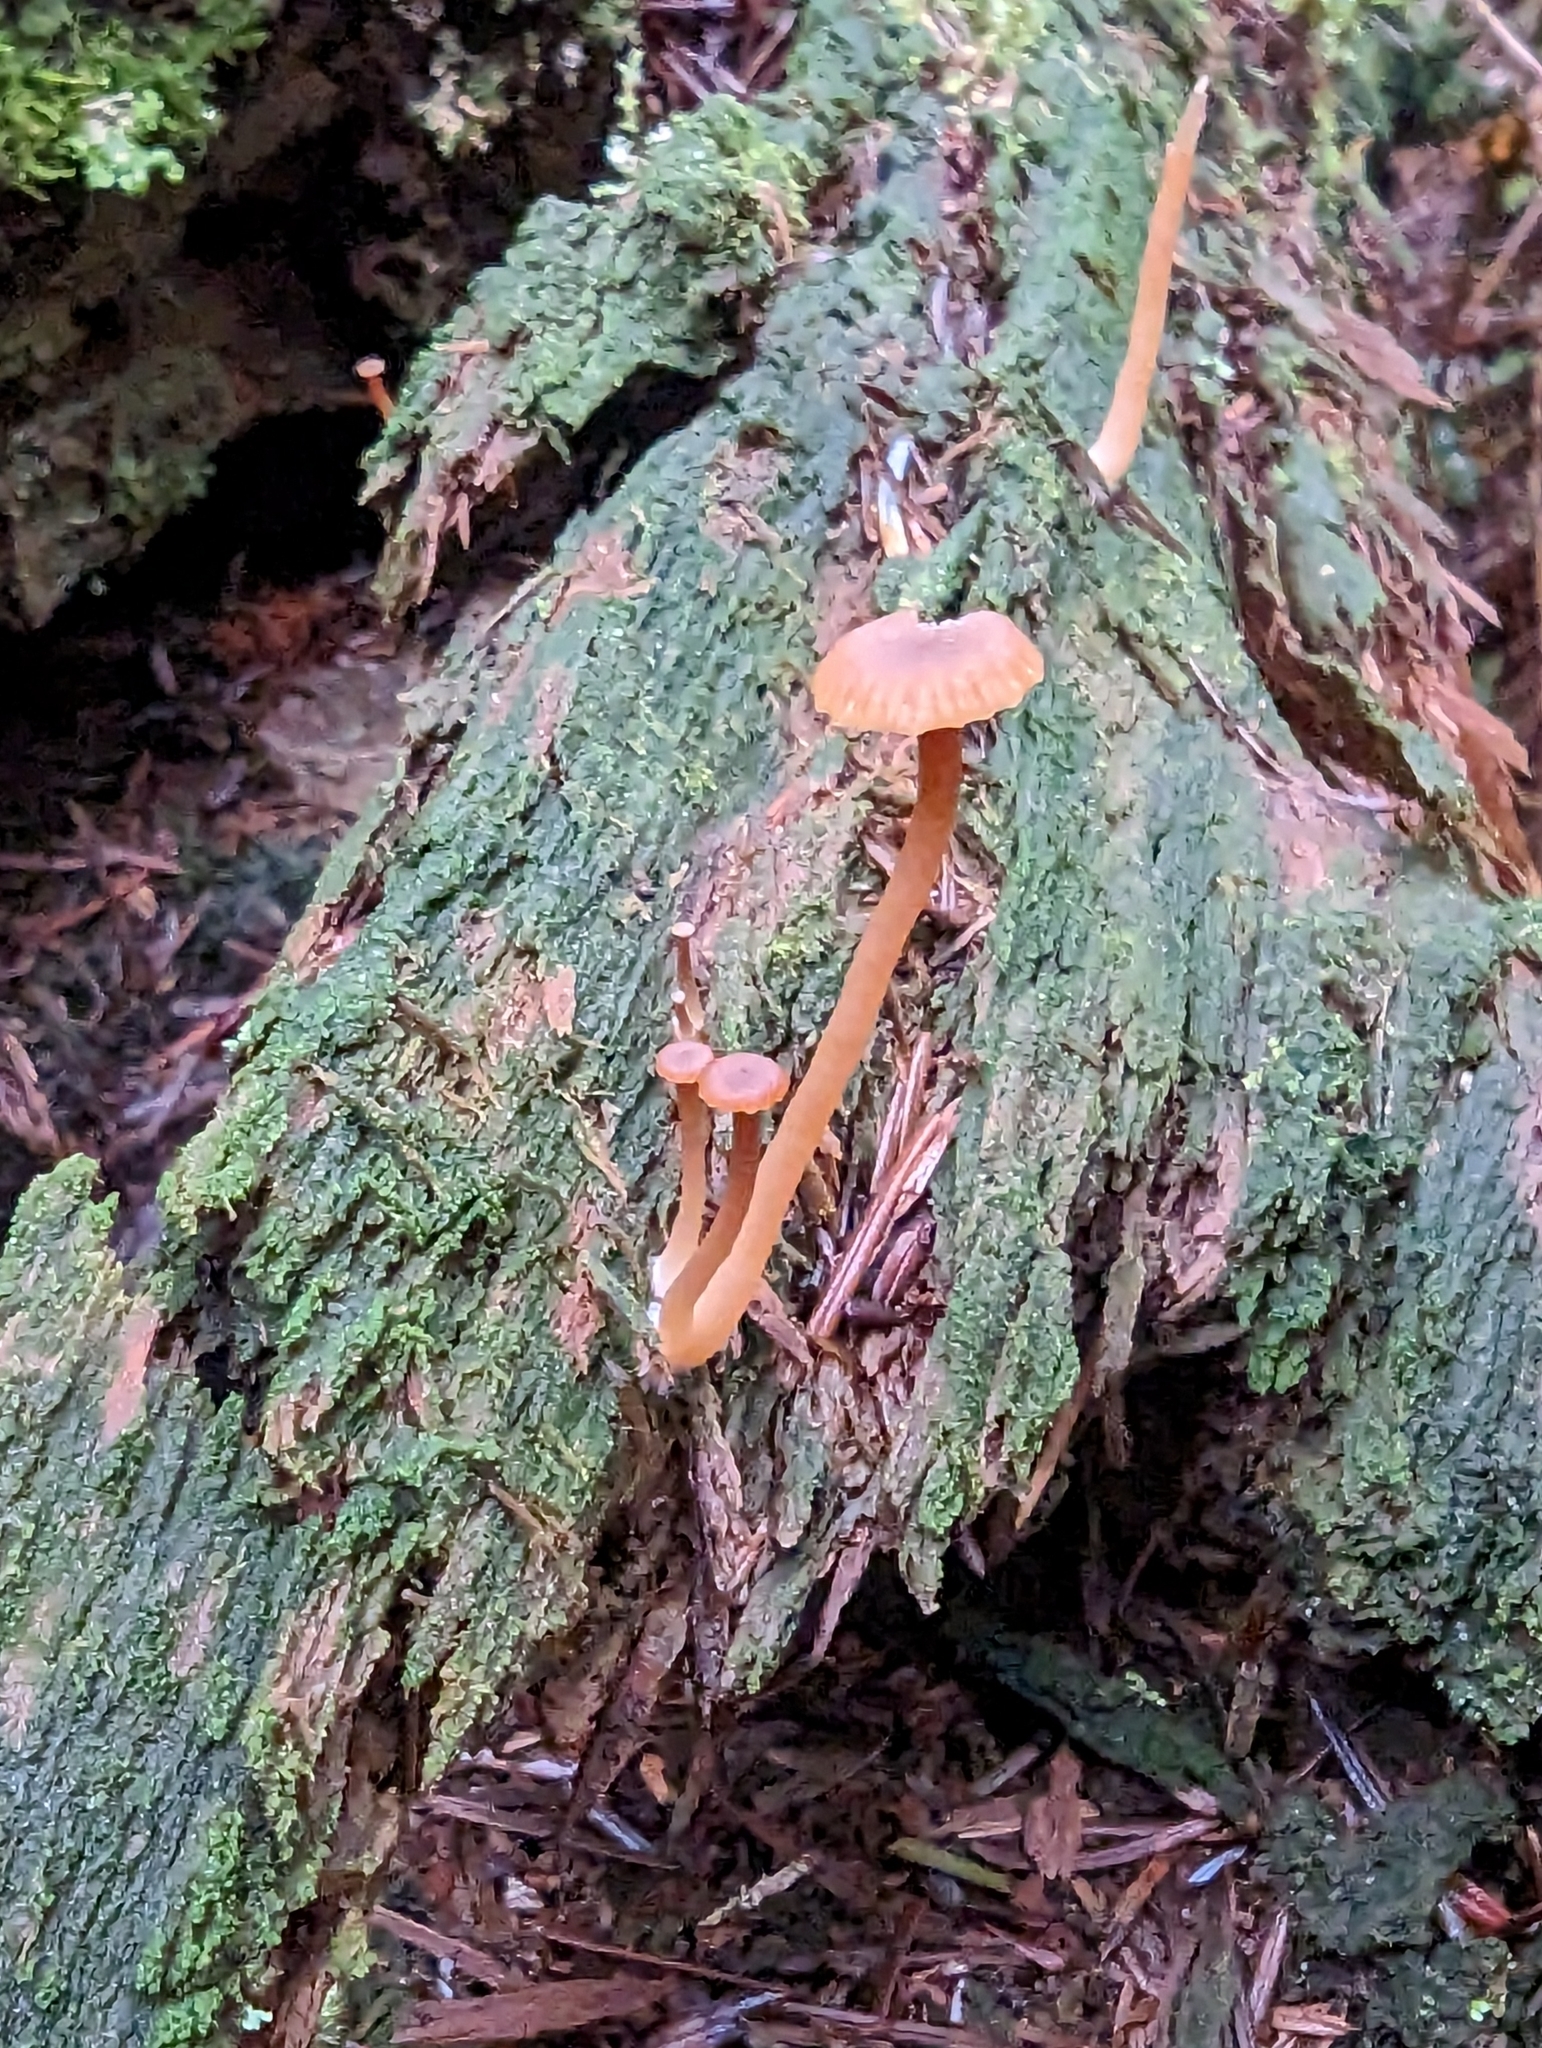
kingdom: Fungi
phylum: Basidiomycota
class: Agaricomycetes
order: Agaricales
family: Hygrophoraceae
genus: Lichenomphalia
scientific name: Lichenomphalia
